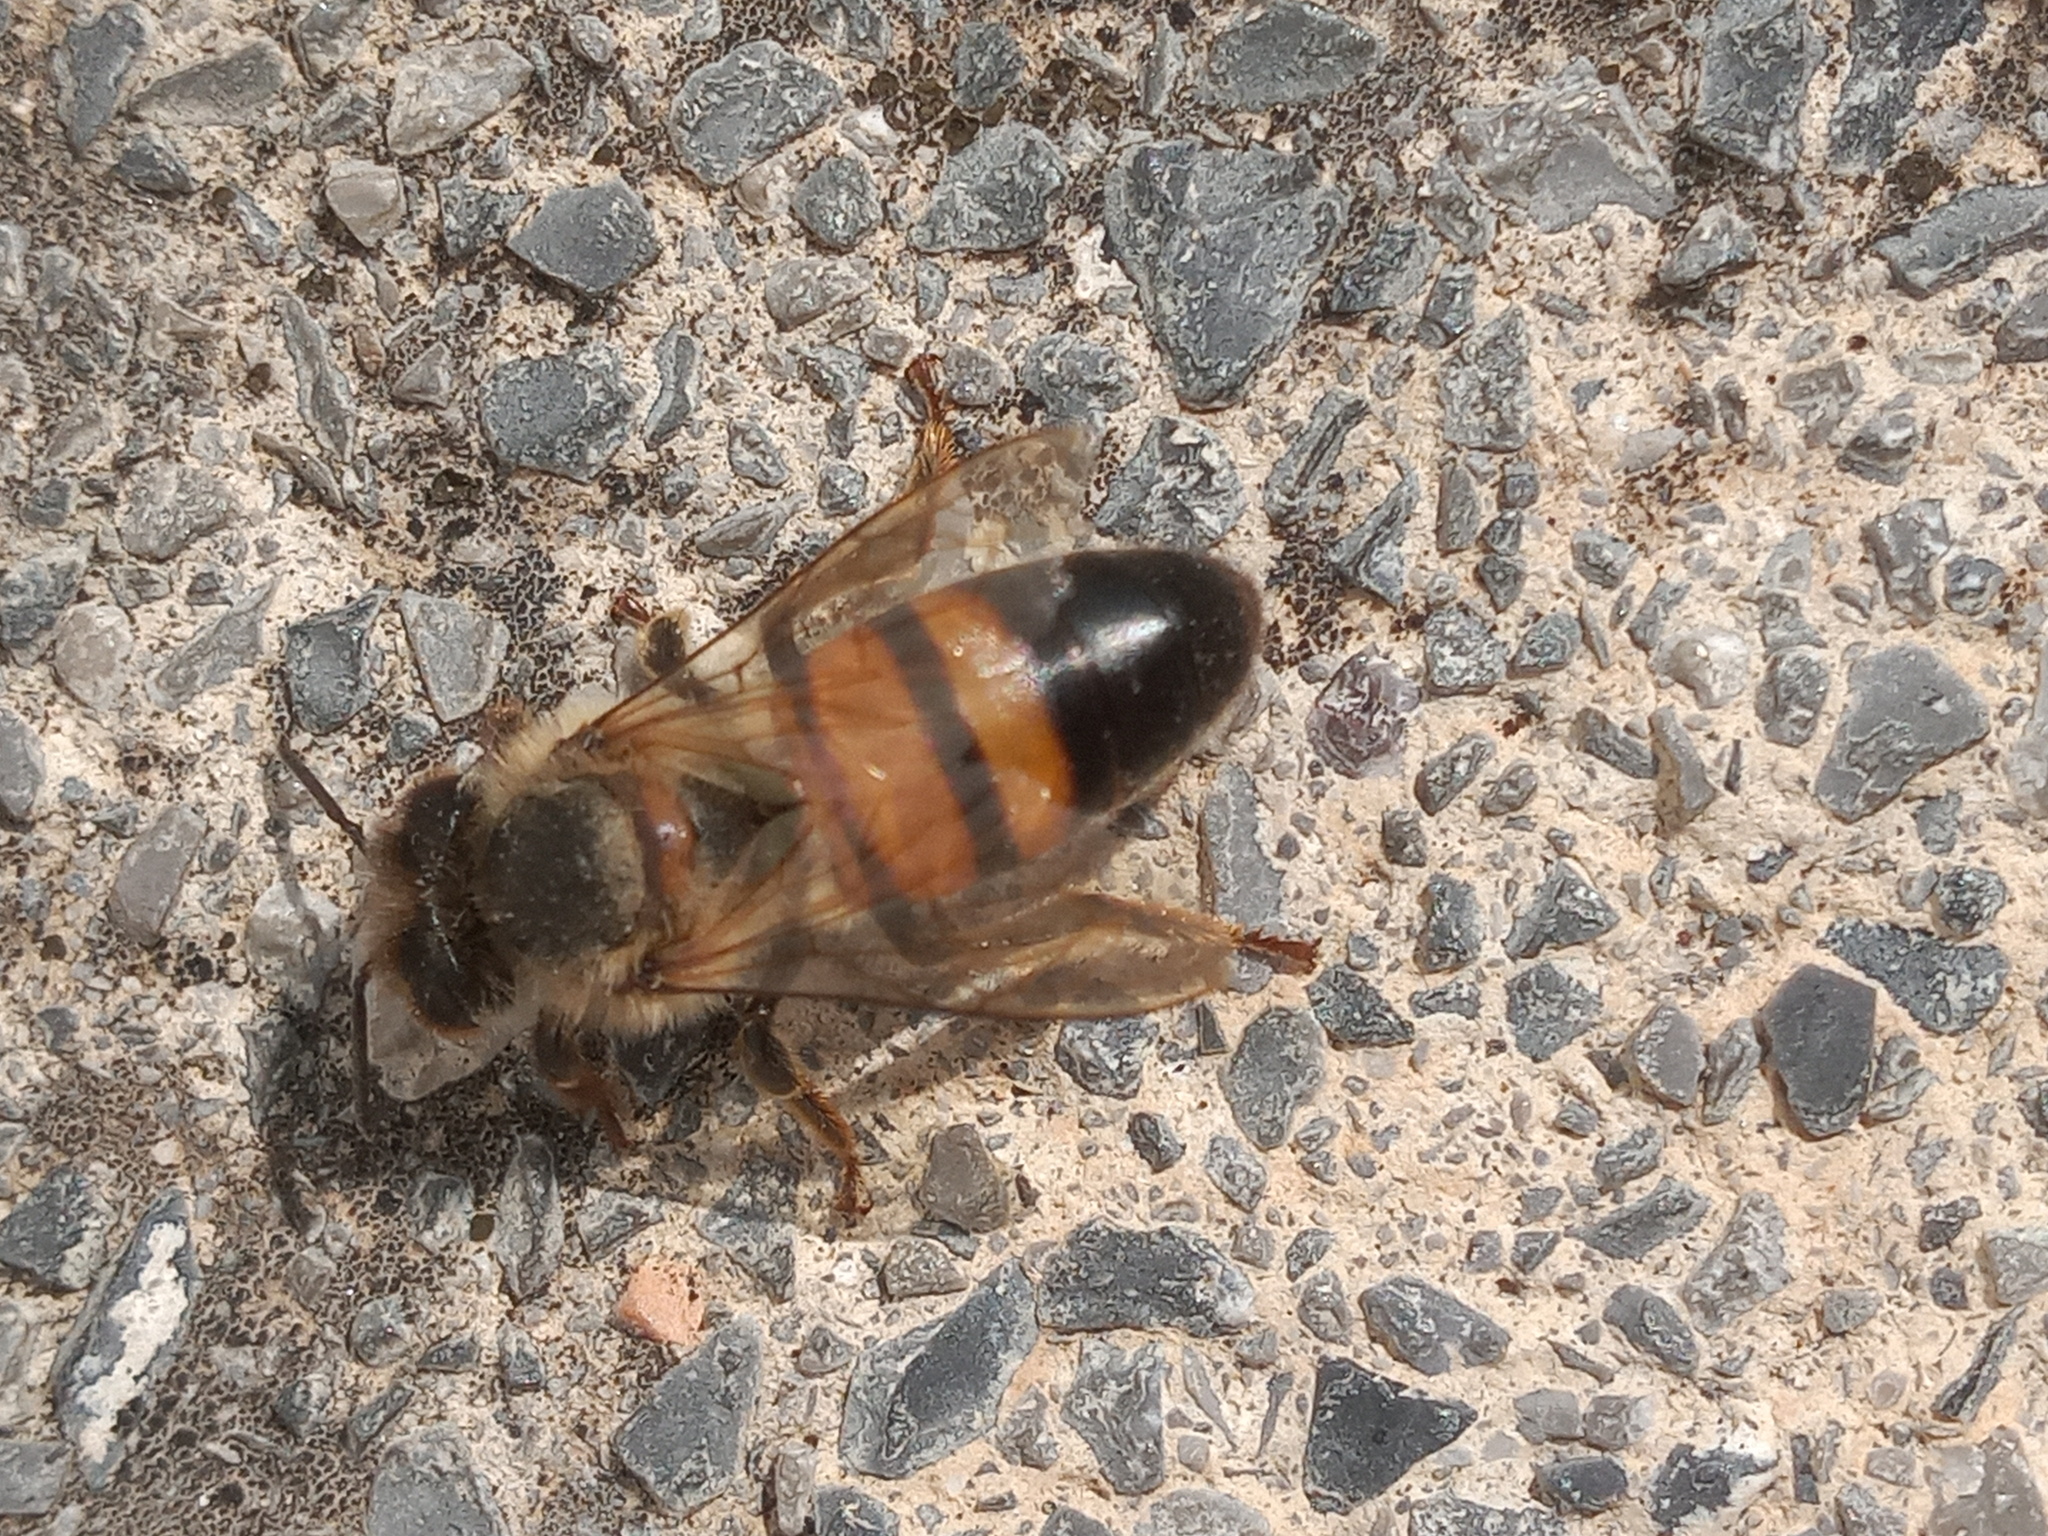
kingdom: Animalia
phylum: Arthropoda
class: Insecta
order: Hymenoptera
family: Apidae
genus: Apis
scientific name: Apis mellifera
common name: Honey bee
